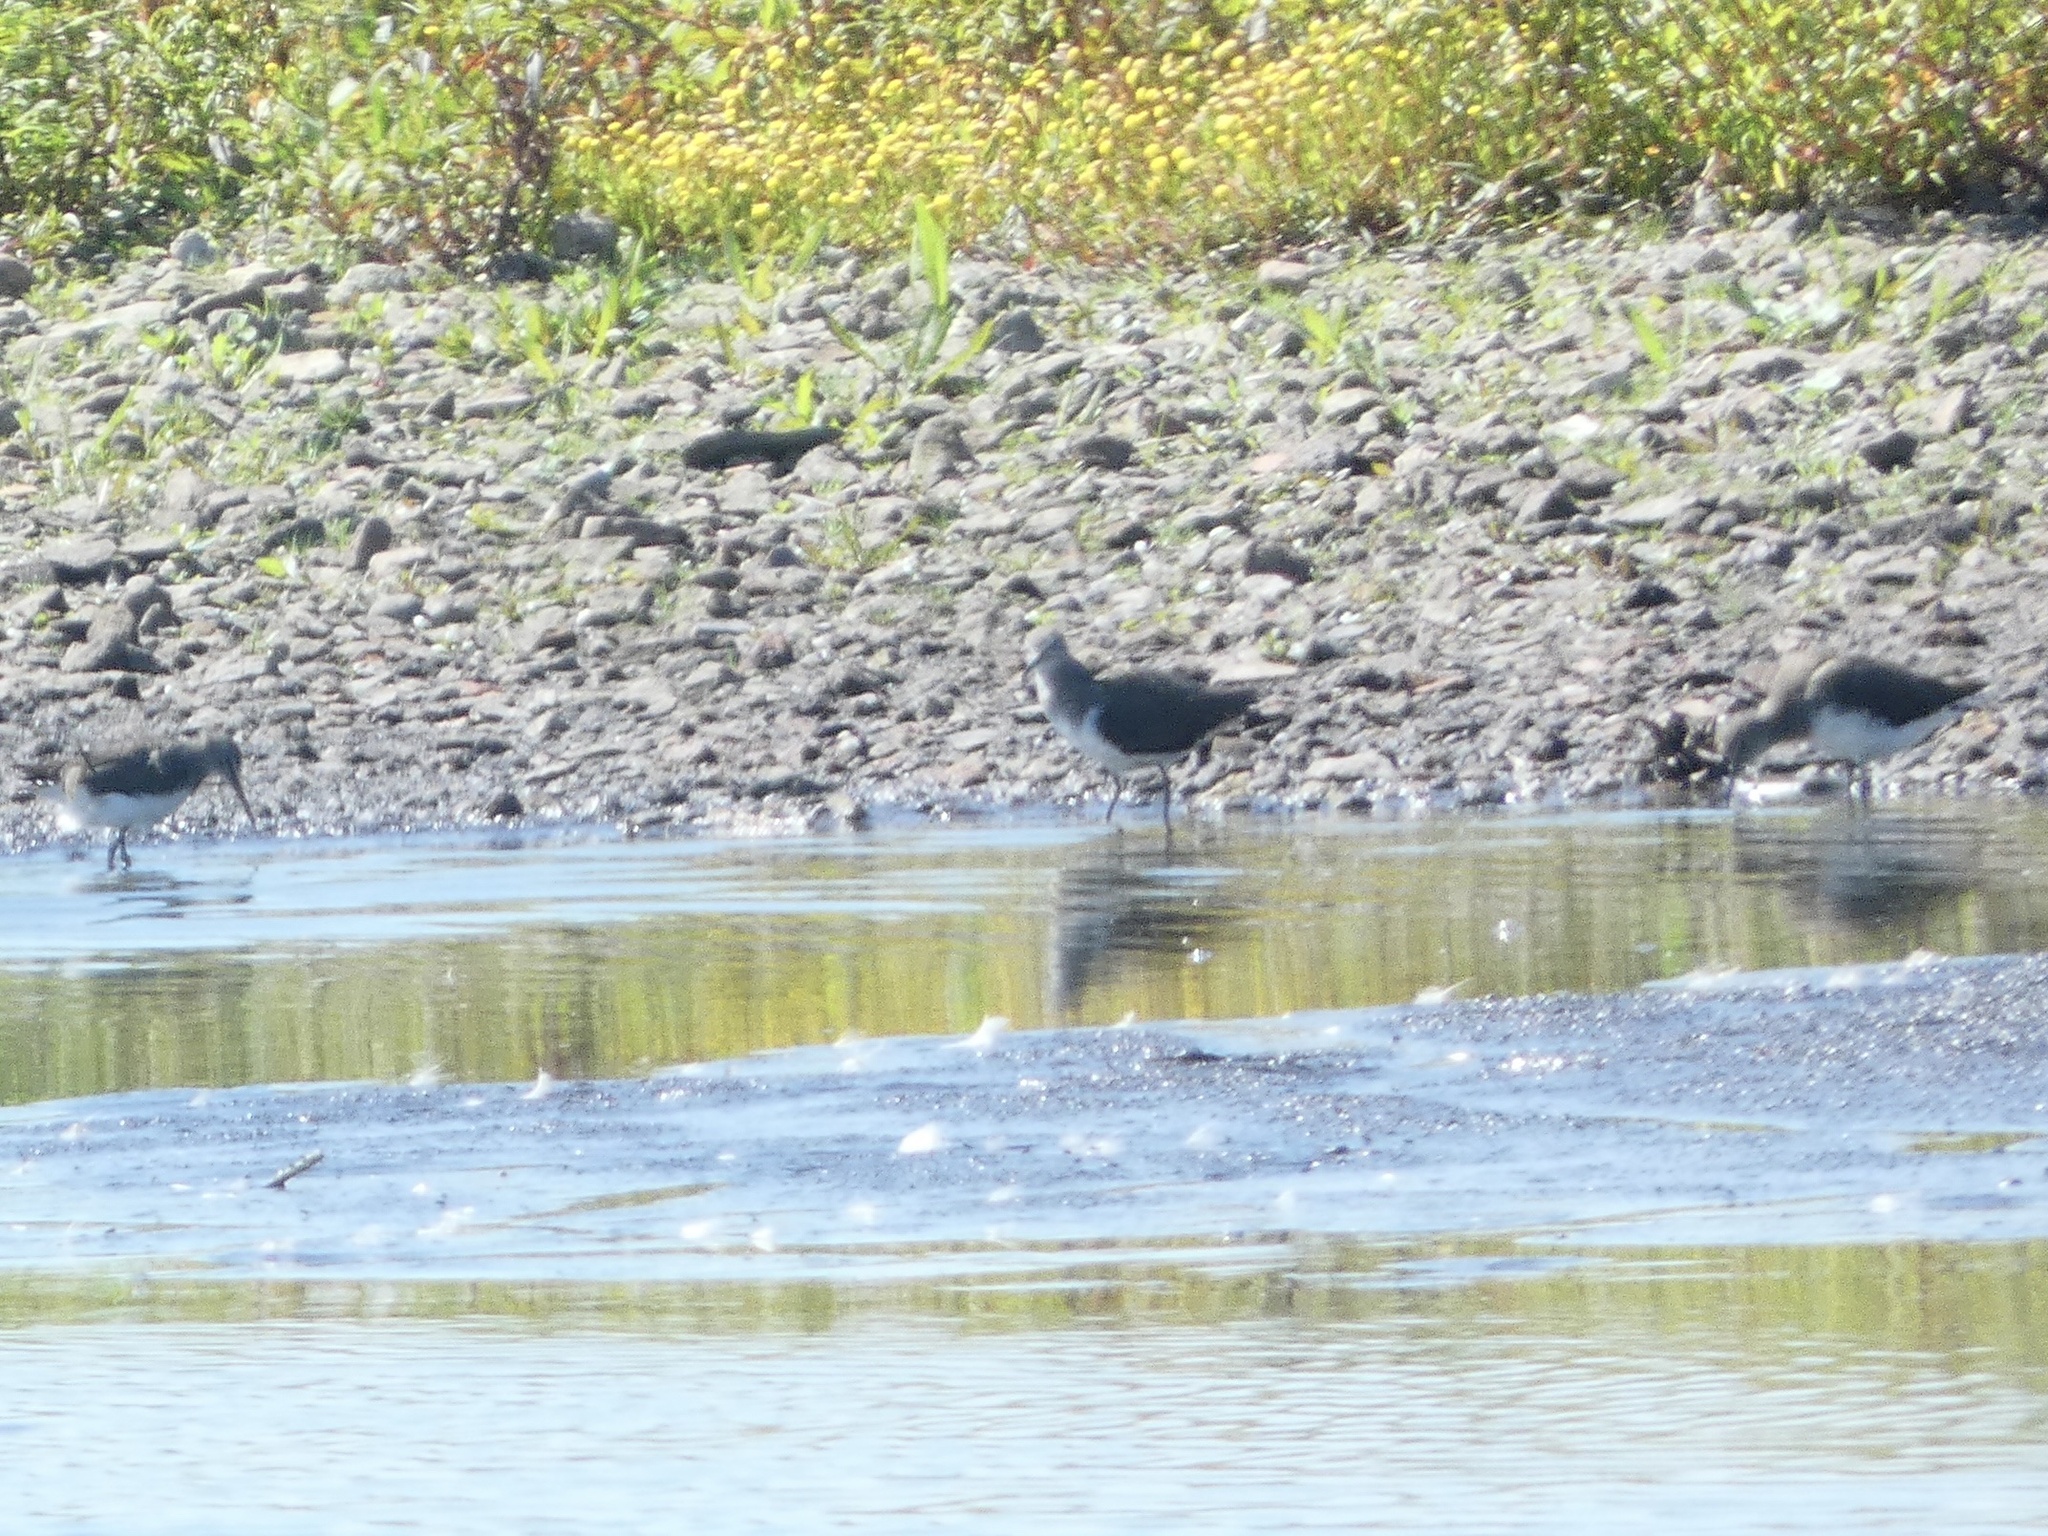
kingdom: Animalia
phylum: Chordata
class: Aves
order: Charadriiformes
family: Scolopacidae
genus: Tringa
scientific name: Tringa ochropus
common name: Green sandpiper
